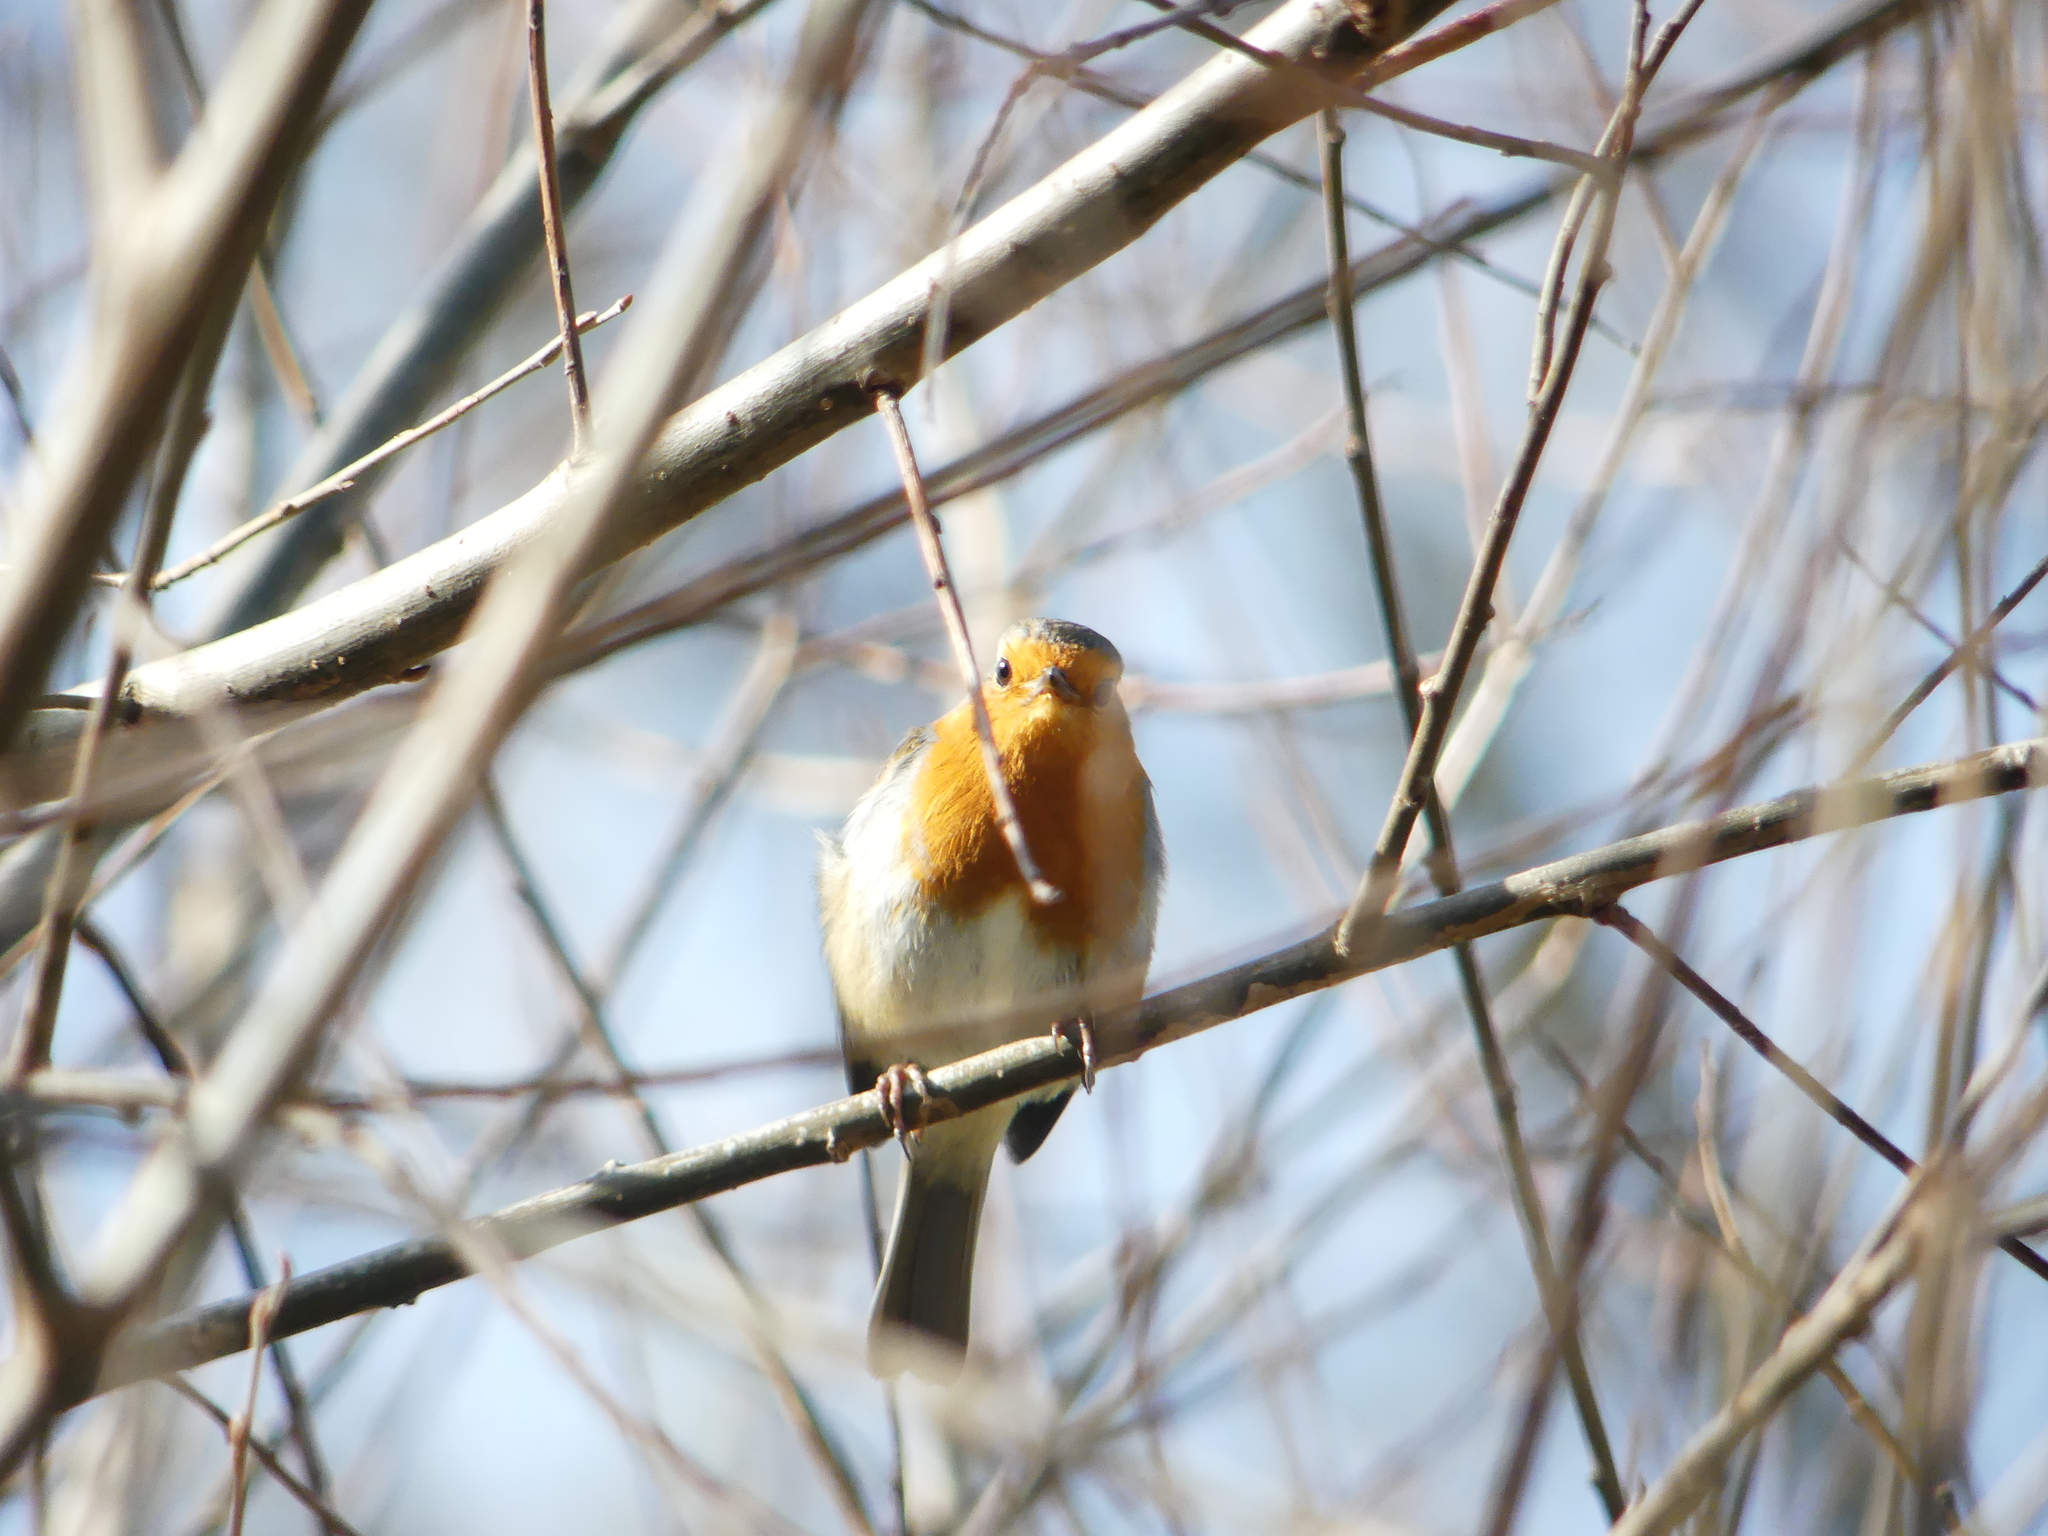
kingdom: Animalia
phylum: Chordata
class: Aves
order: Passeriformes
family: Muscicapidae
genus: Erithacus
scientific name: Erithacus rubecula
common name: European robin
